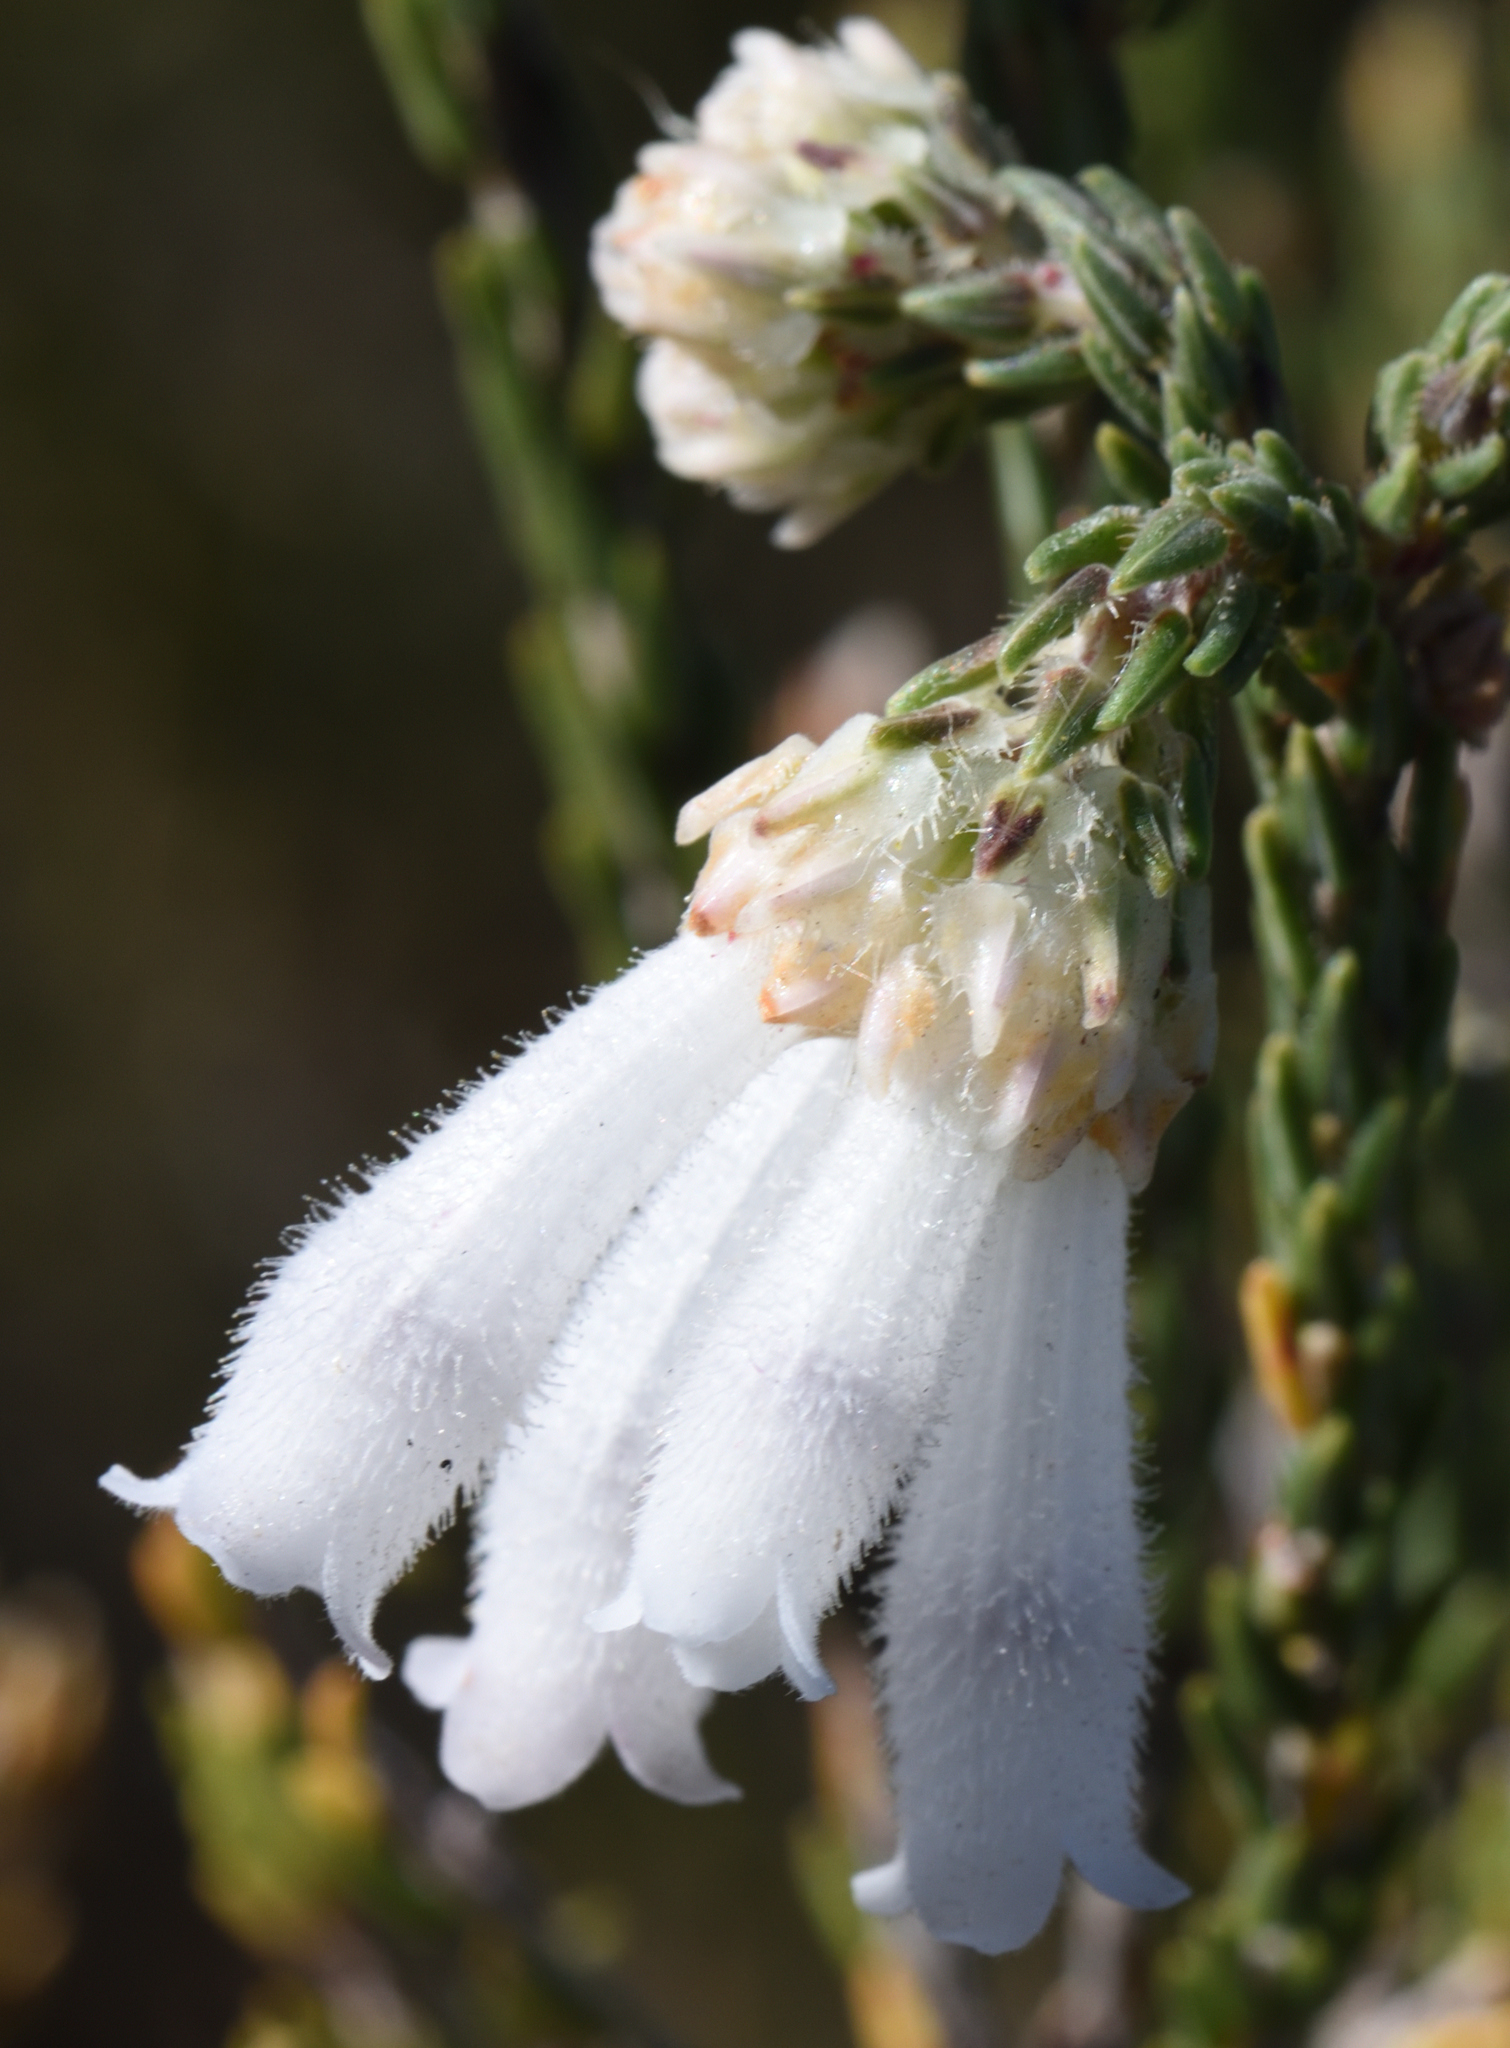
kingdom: Plantae
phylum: Tracheophyta
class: Magnoliopsida
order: Ericales
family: Ericaceae
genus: Erica
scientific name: Erica pectinifolia
